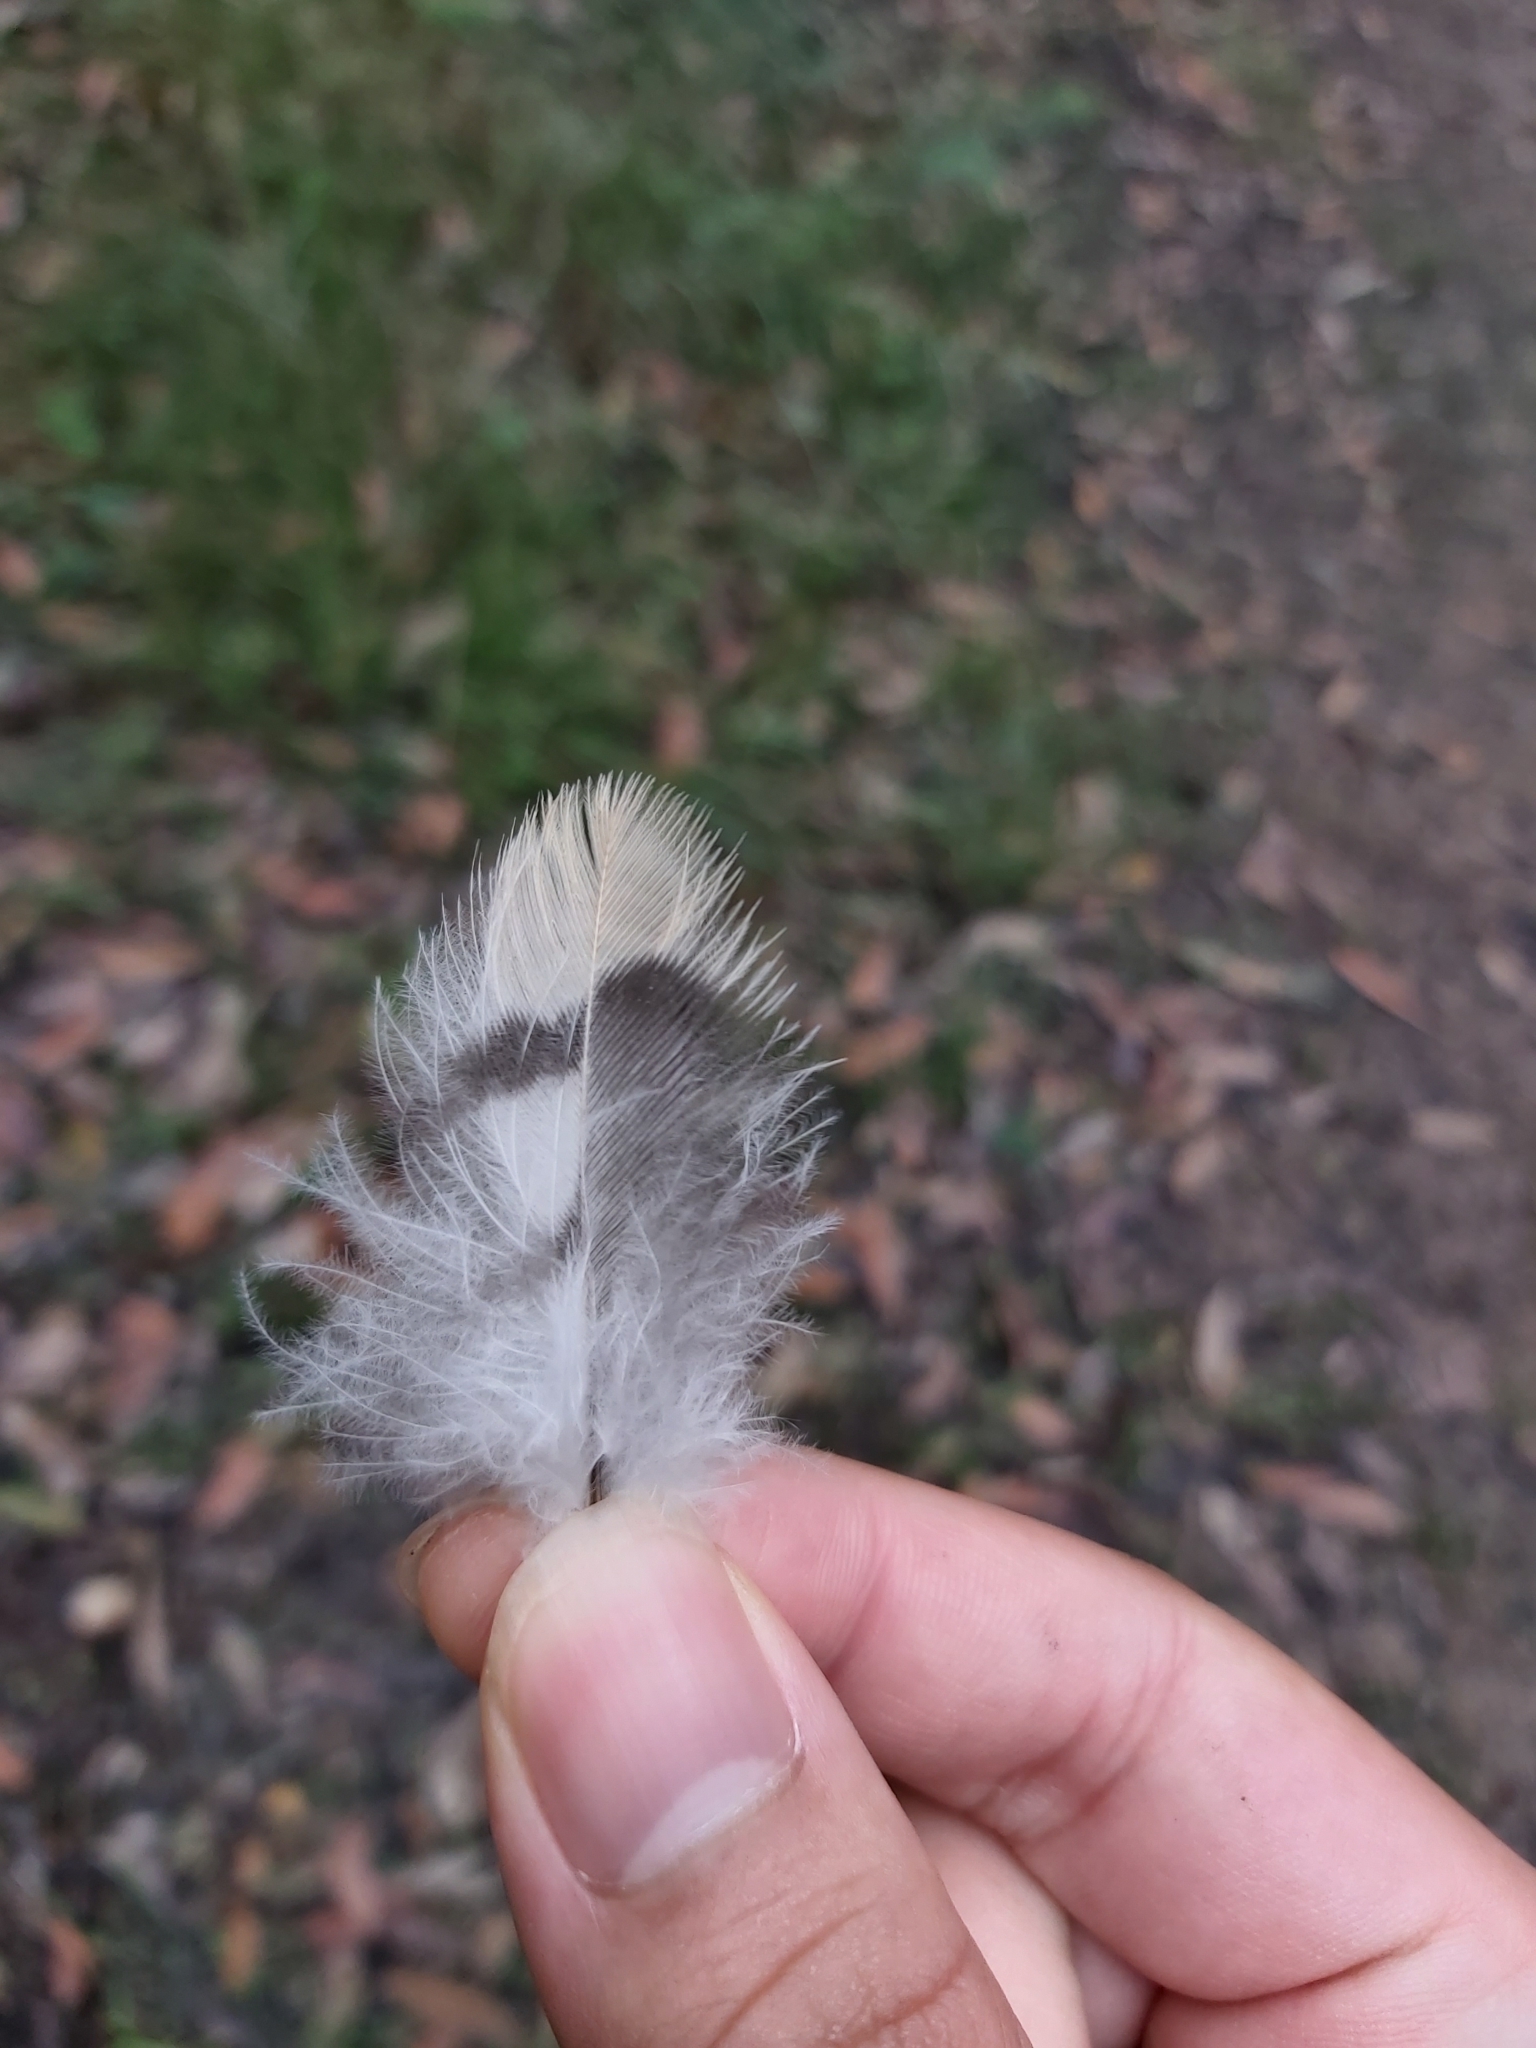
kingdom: Animalia
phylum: Chordata
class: Aves
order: Cuculiformes
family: Cuculidae
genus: Scythrops
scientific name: Scythrops novaehollandiae
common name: Channel-billed cuckoo
